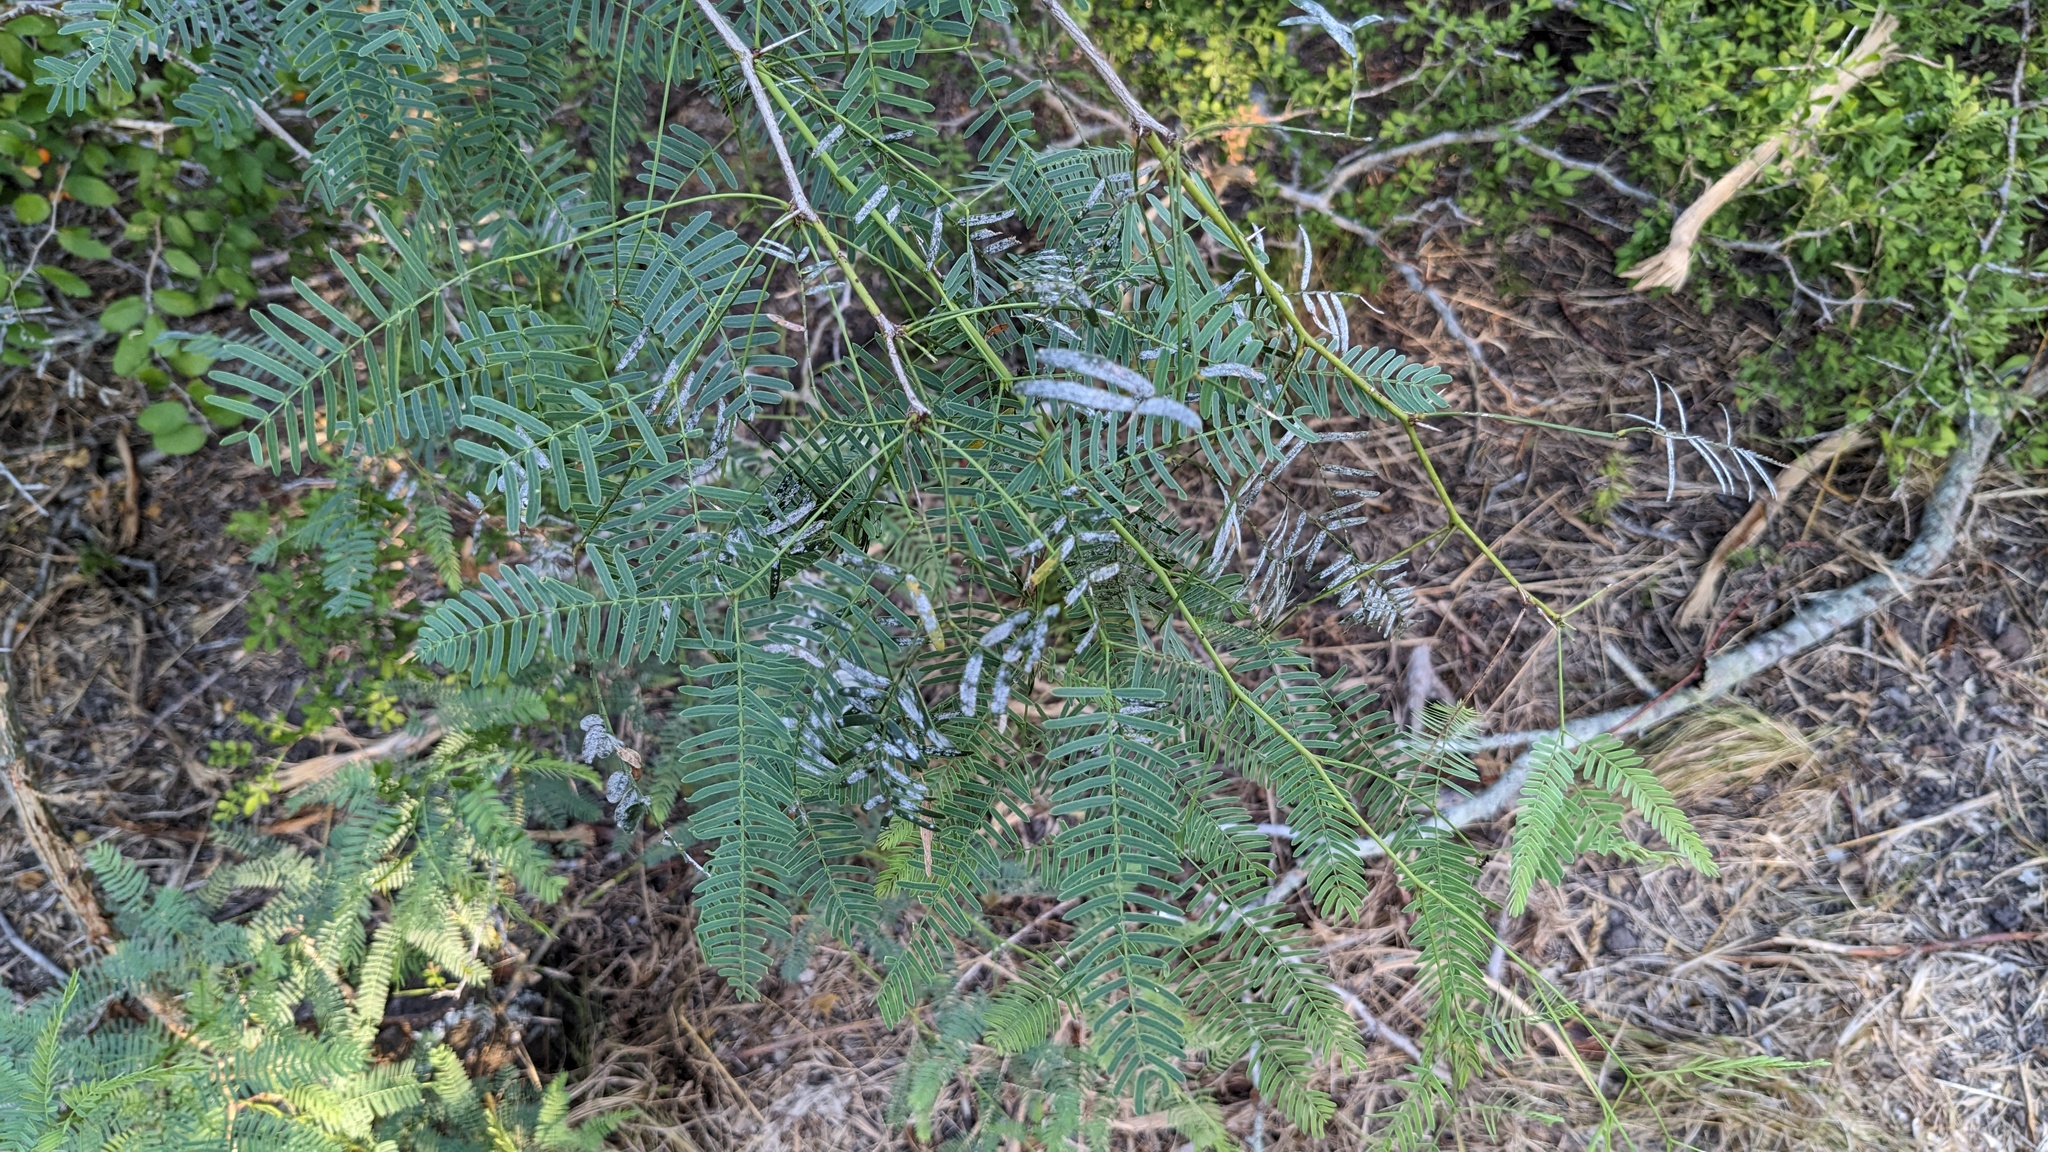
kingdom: Plantae
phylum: Tracheophyta
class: Magnoliopsida
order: Fabales
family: Fabaceae
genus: Prosopis
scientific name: Prosopis glandulosa
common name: Honey mesquite
